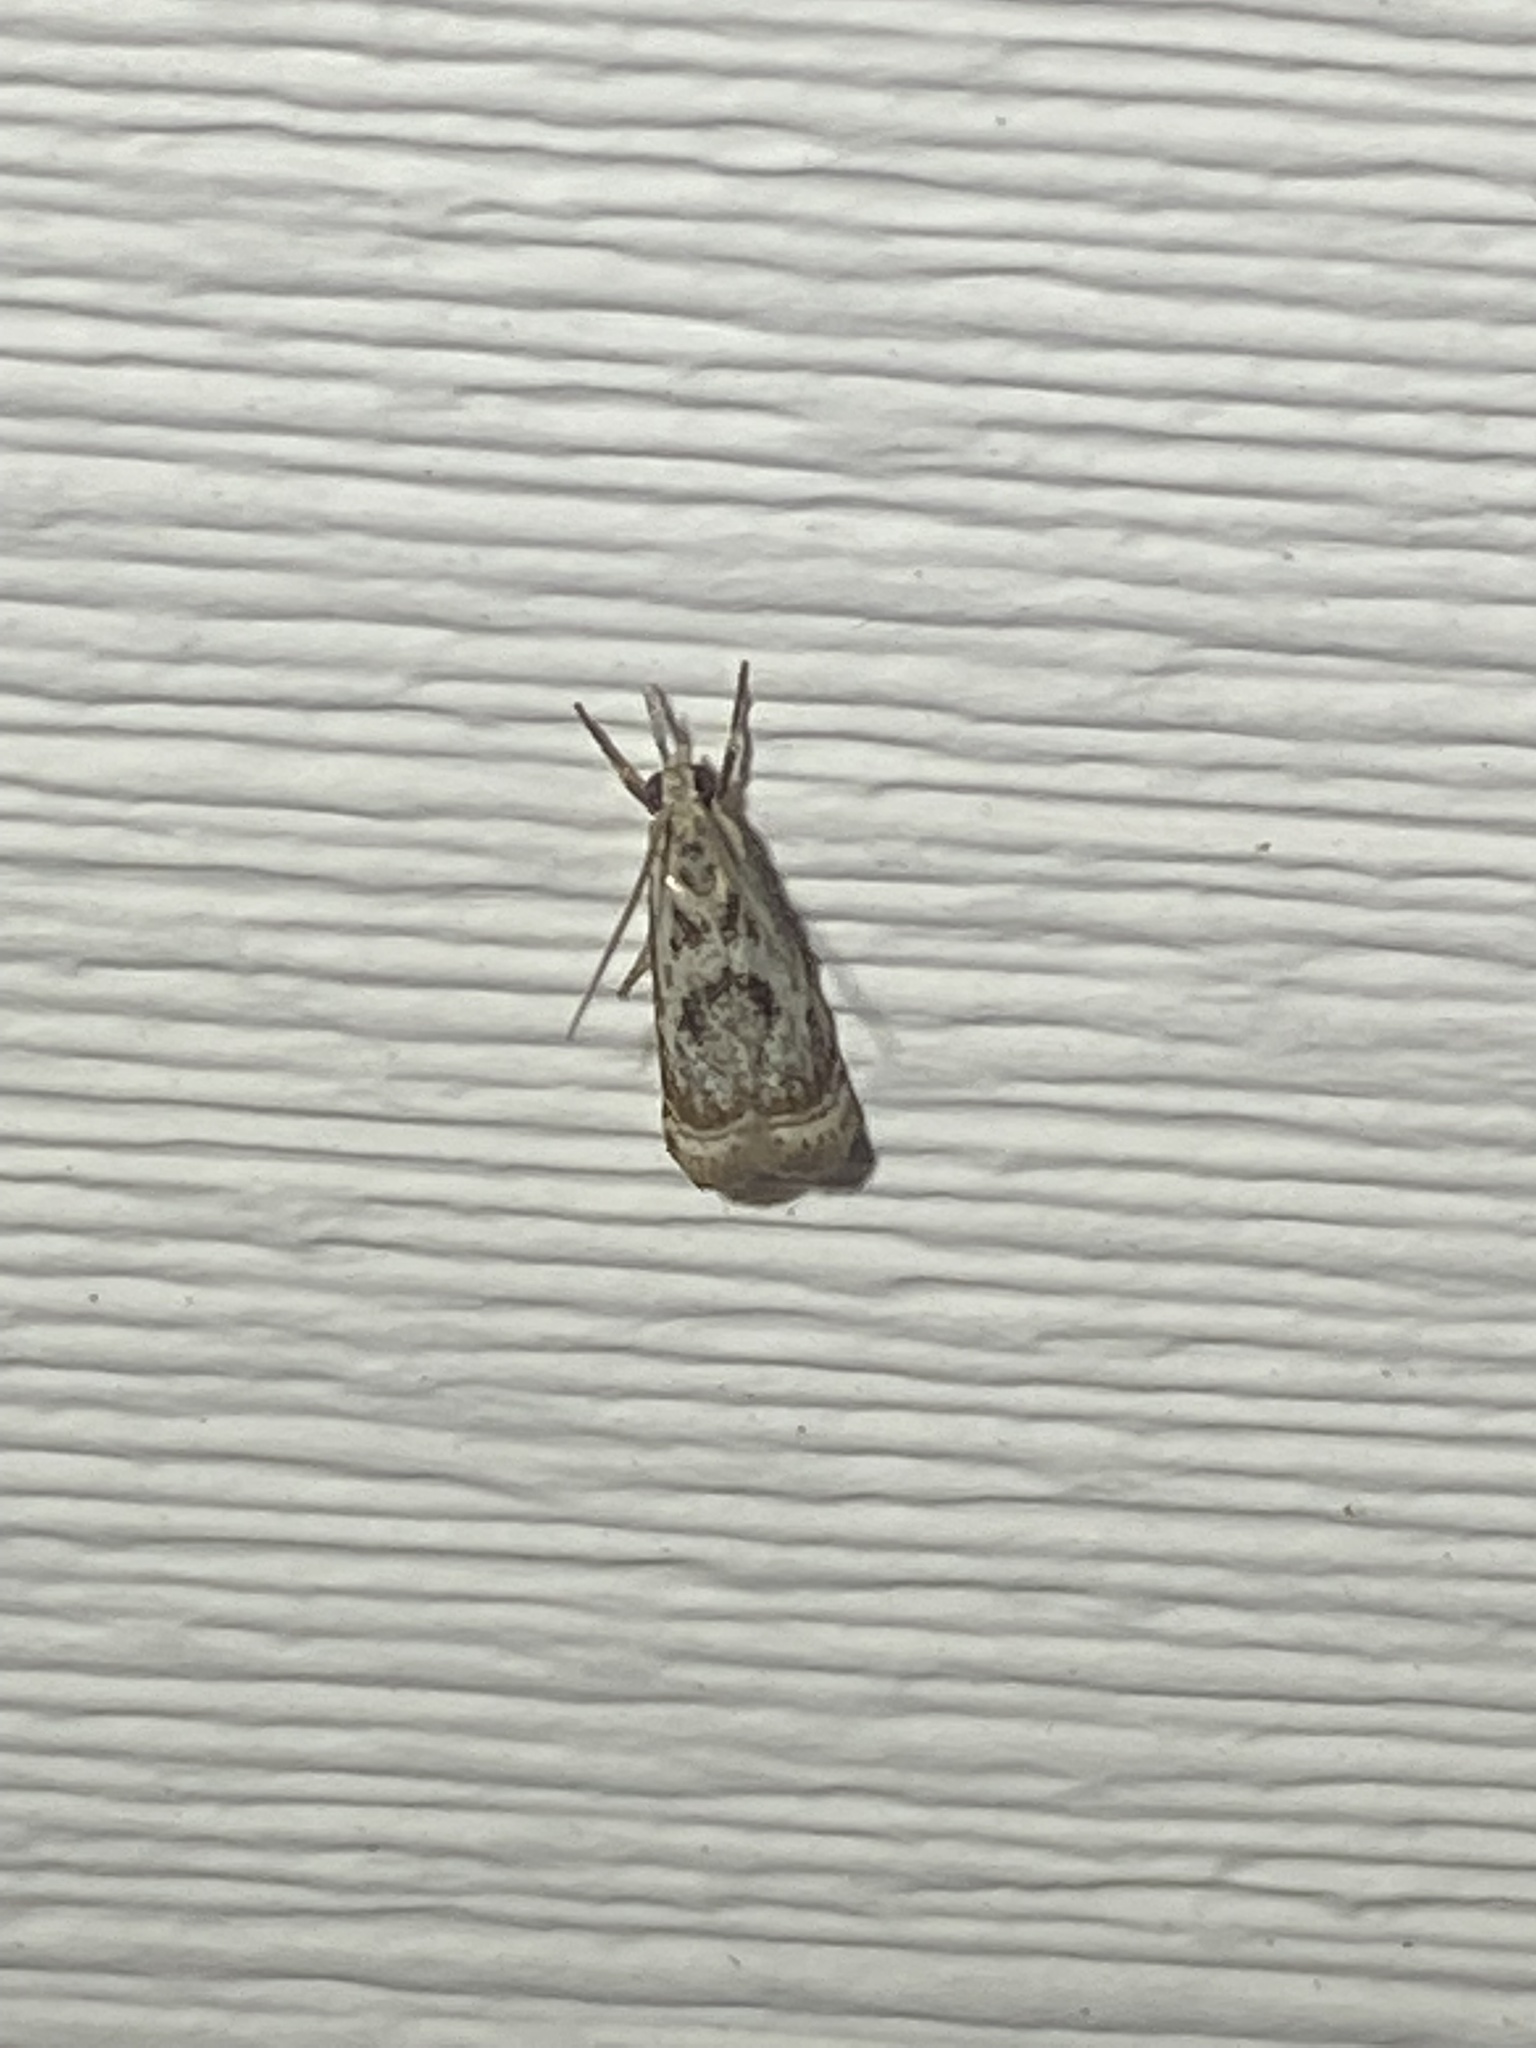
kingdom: Animalia
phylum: Arthropoda
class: Insecta
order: Lepidoptera
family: Crambidae
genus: Microcrambus
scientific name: Microcrambus elegans
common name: Elegant grass-veneer
